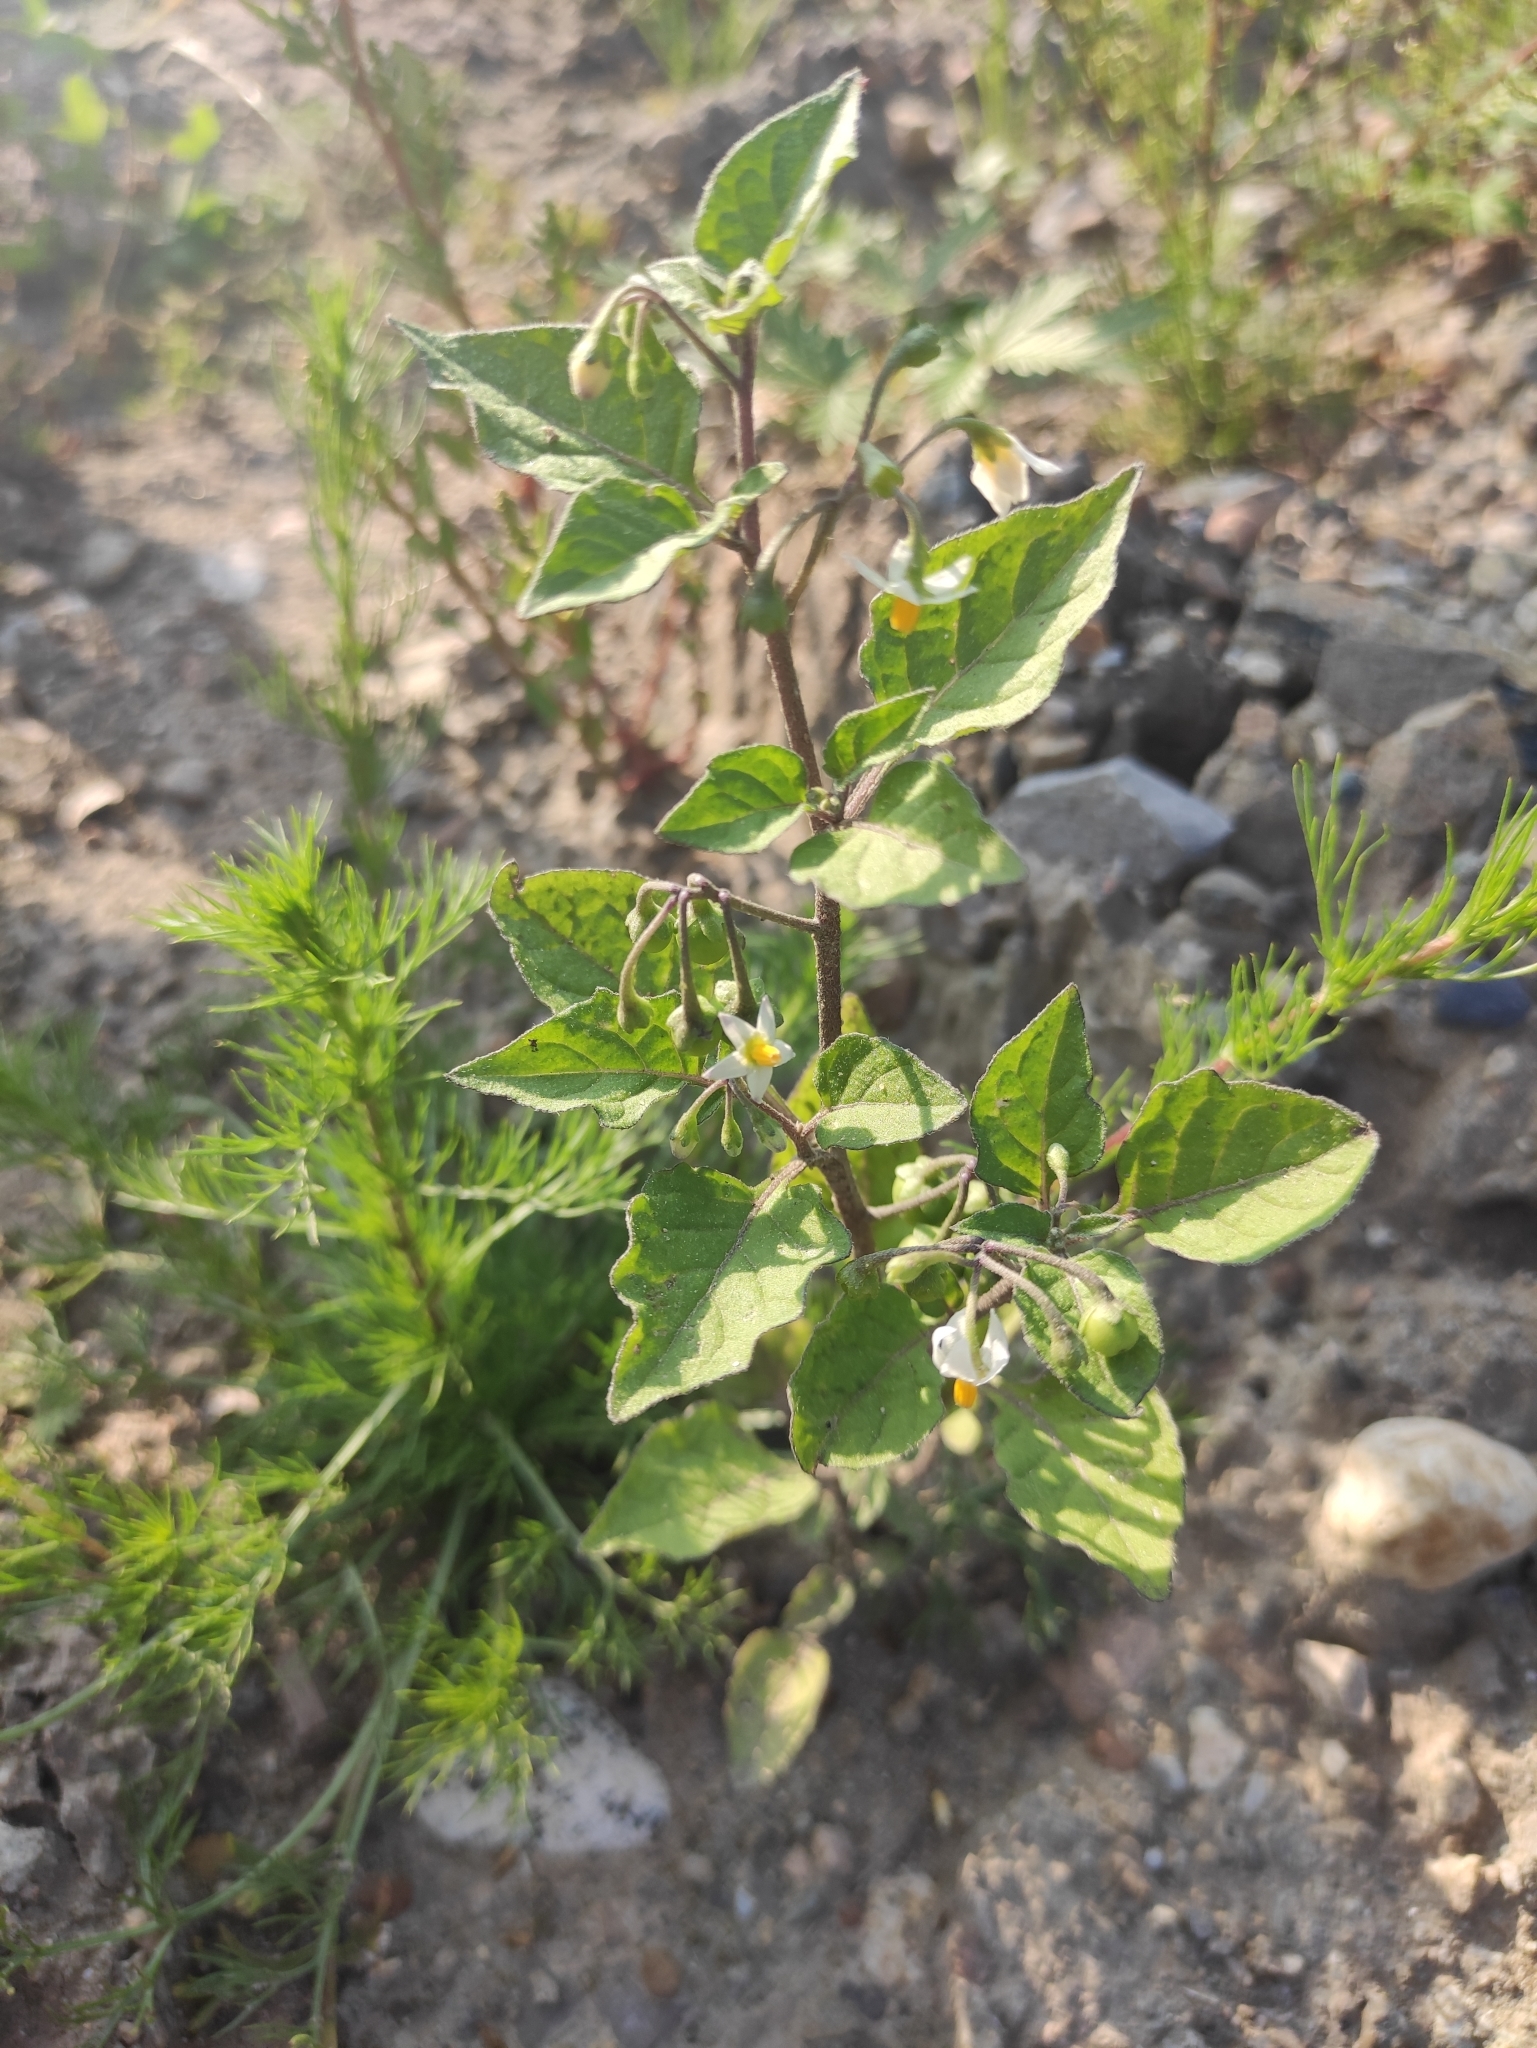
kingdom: Plantae
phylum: Tracheophyta
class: Magnoliopsida
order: Solanales
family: Solanaceae
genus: Solanum
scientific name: Solanum nigrum
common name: Black nightshade
